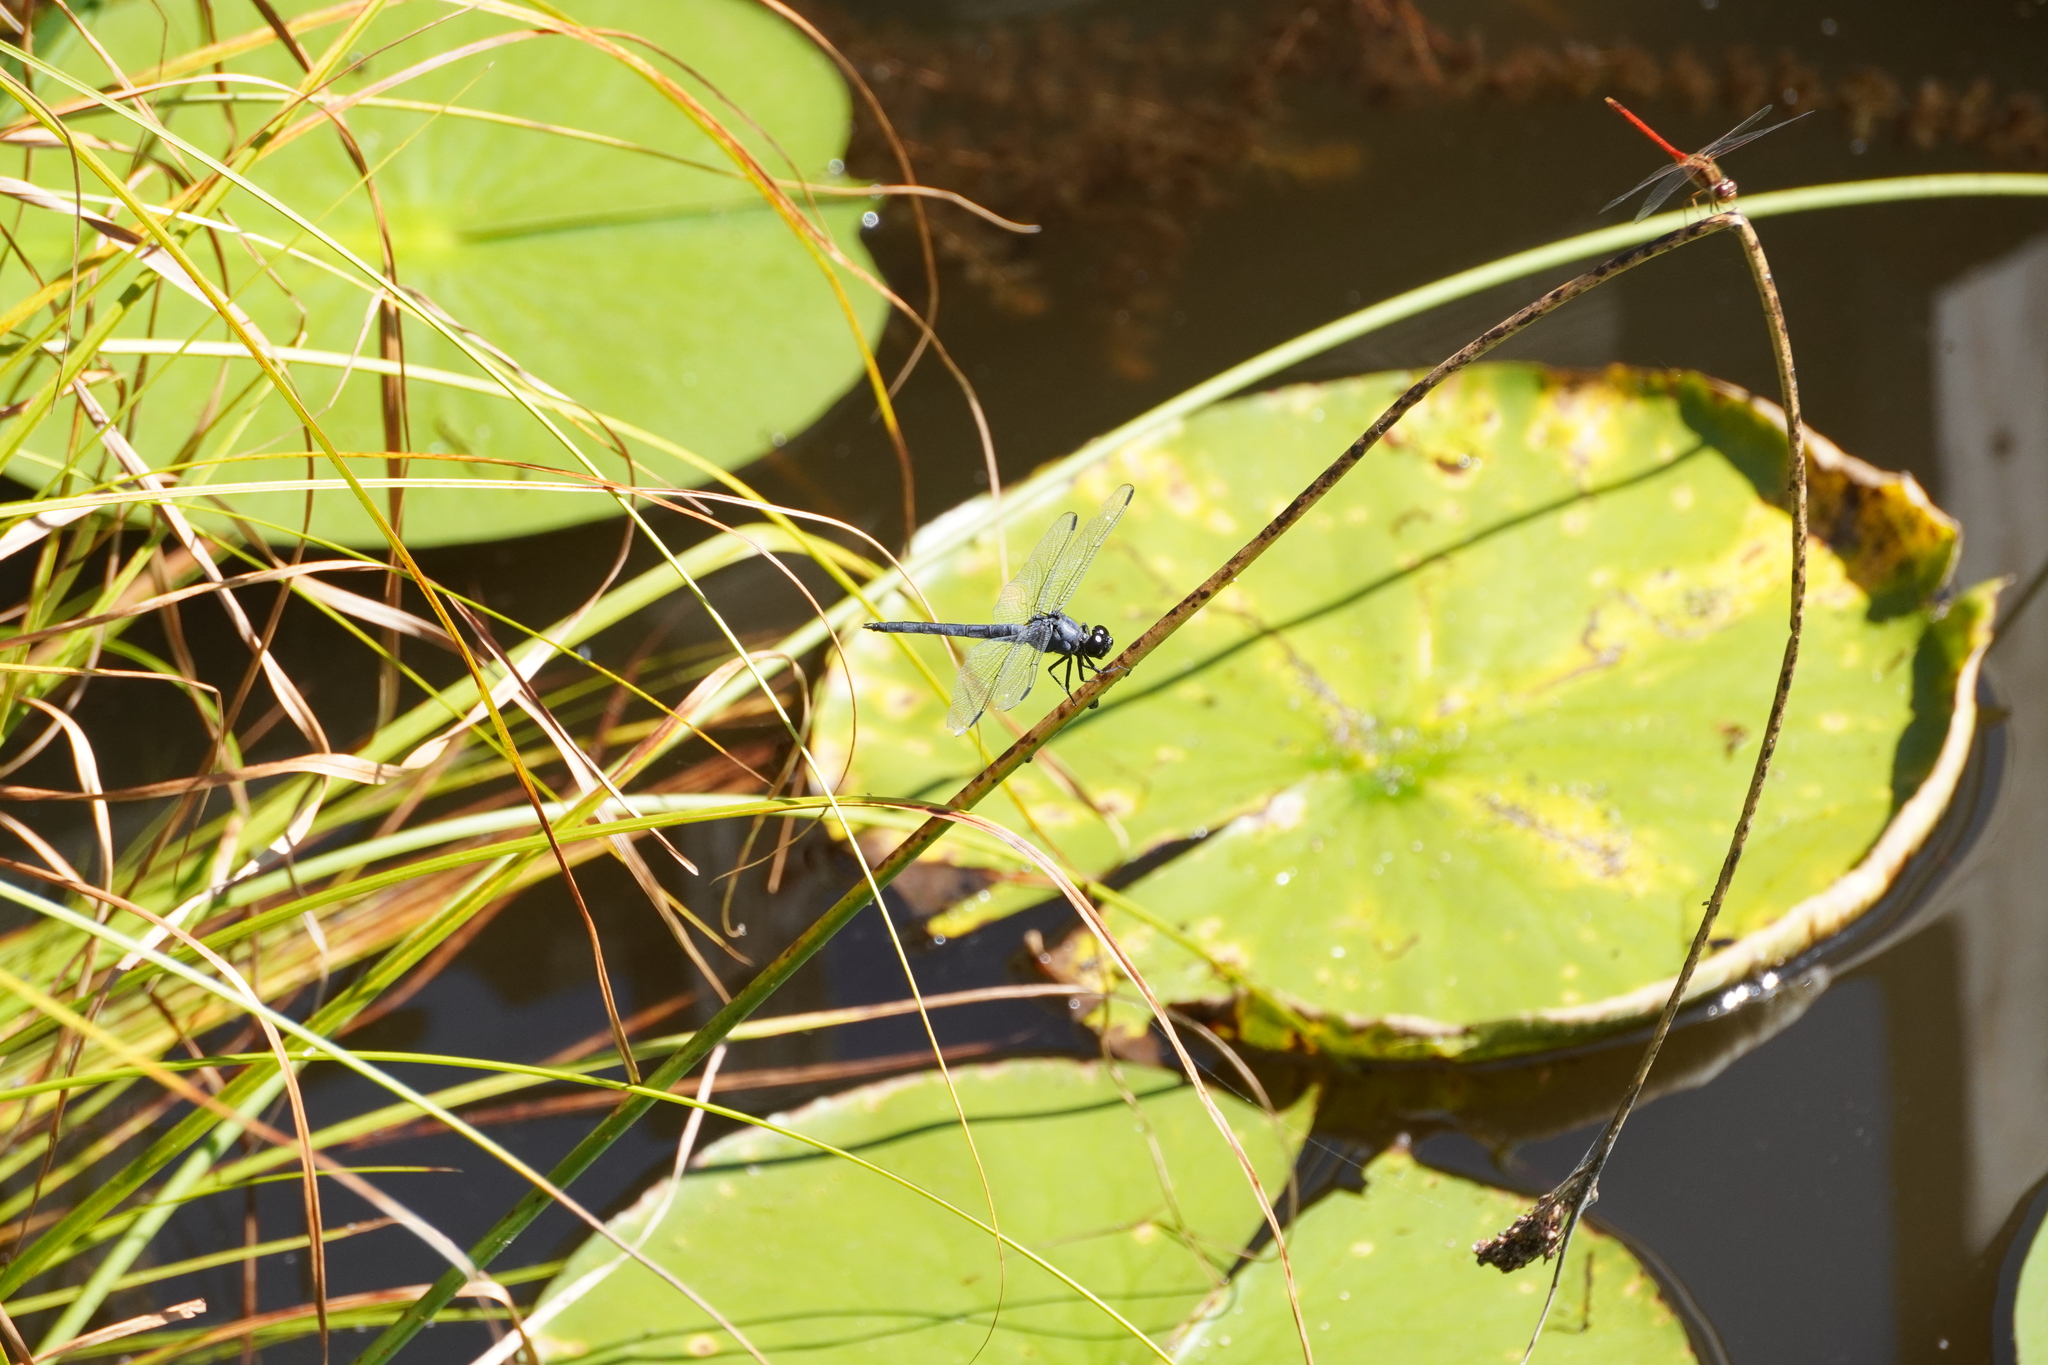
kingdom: Animalia
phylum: Arthropoda
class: Insecta
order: Odonata
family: Libellulidae
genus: Libellula
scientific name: Libellula incesta
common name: Slaty skimmer
